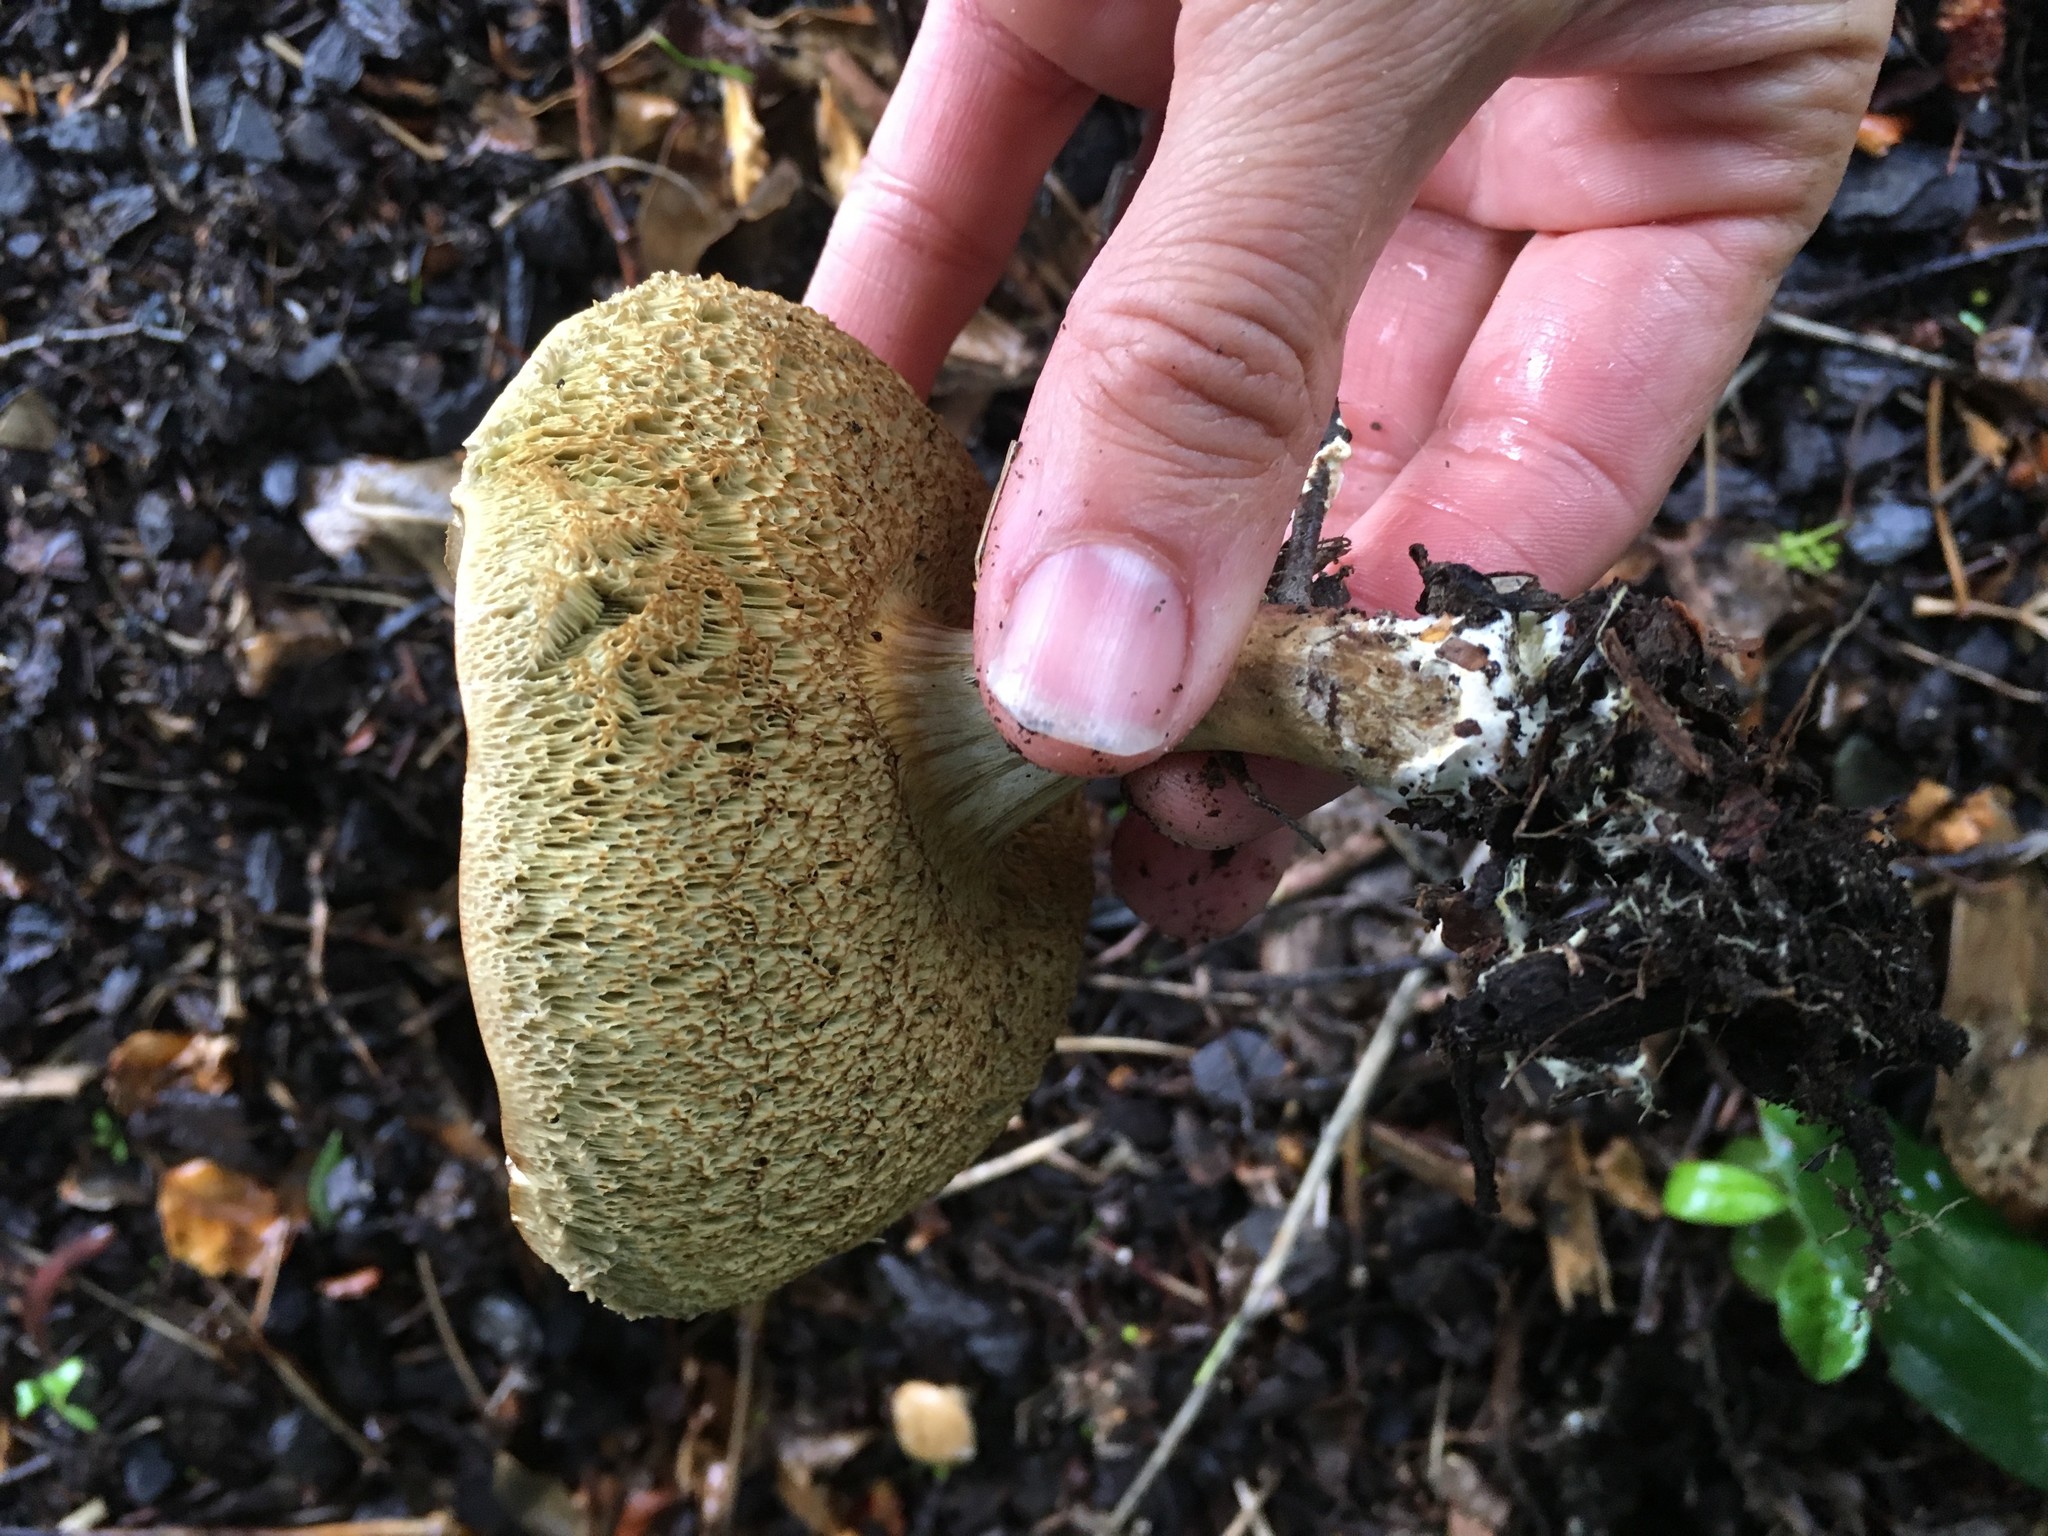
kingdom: Fungi
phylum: Basidiomycota
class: Agaricomycetes
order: Boletales
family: Boletaceae
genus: Xerocomellus
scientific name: Xerocomellus cisalpinus
